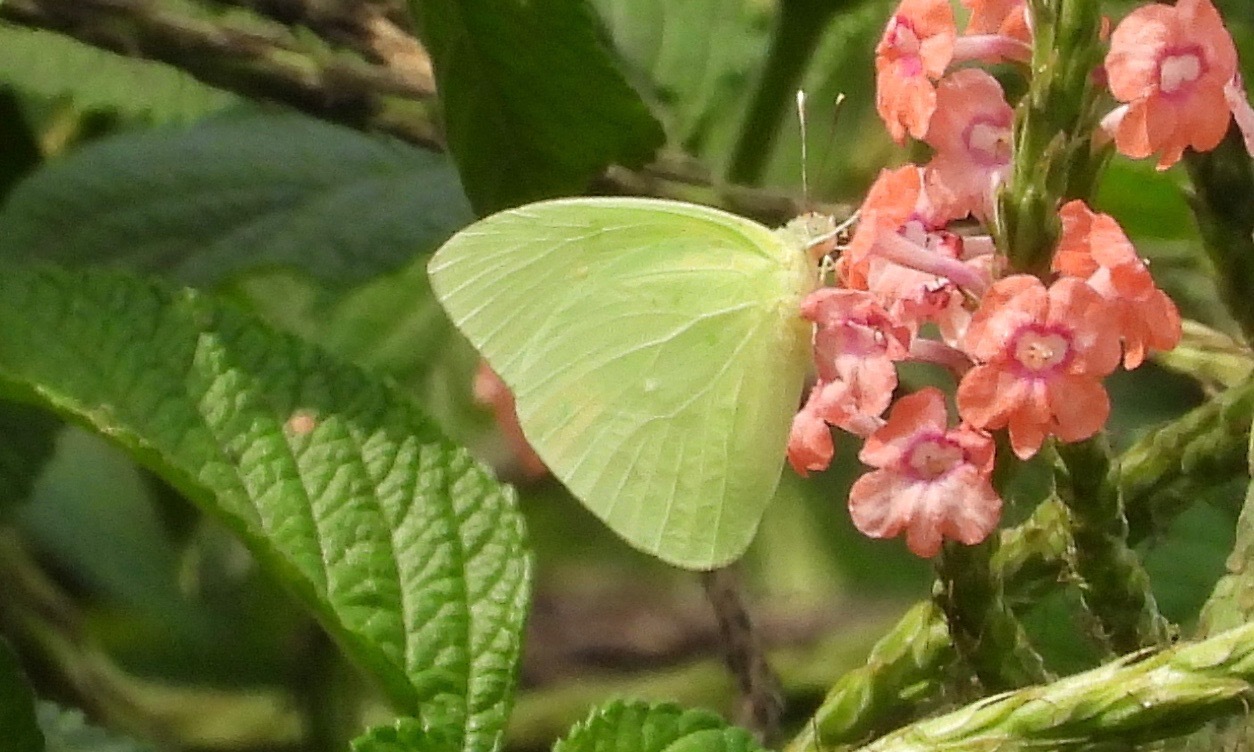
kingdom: Animalia
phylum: Arthropoda
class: Insecta
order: Lepidoptera
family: Pieridae
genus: Aphrissa
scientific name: Aphrissa statira
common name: Statira sulphur
